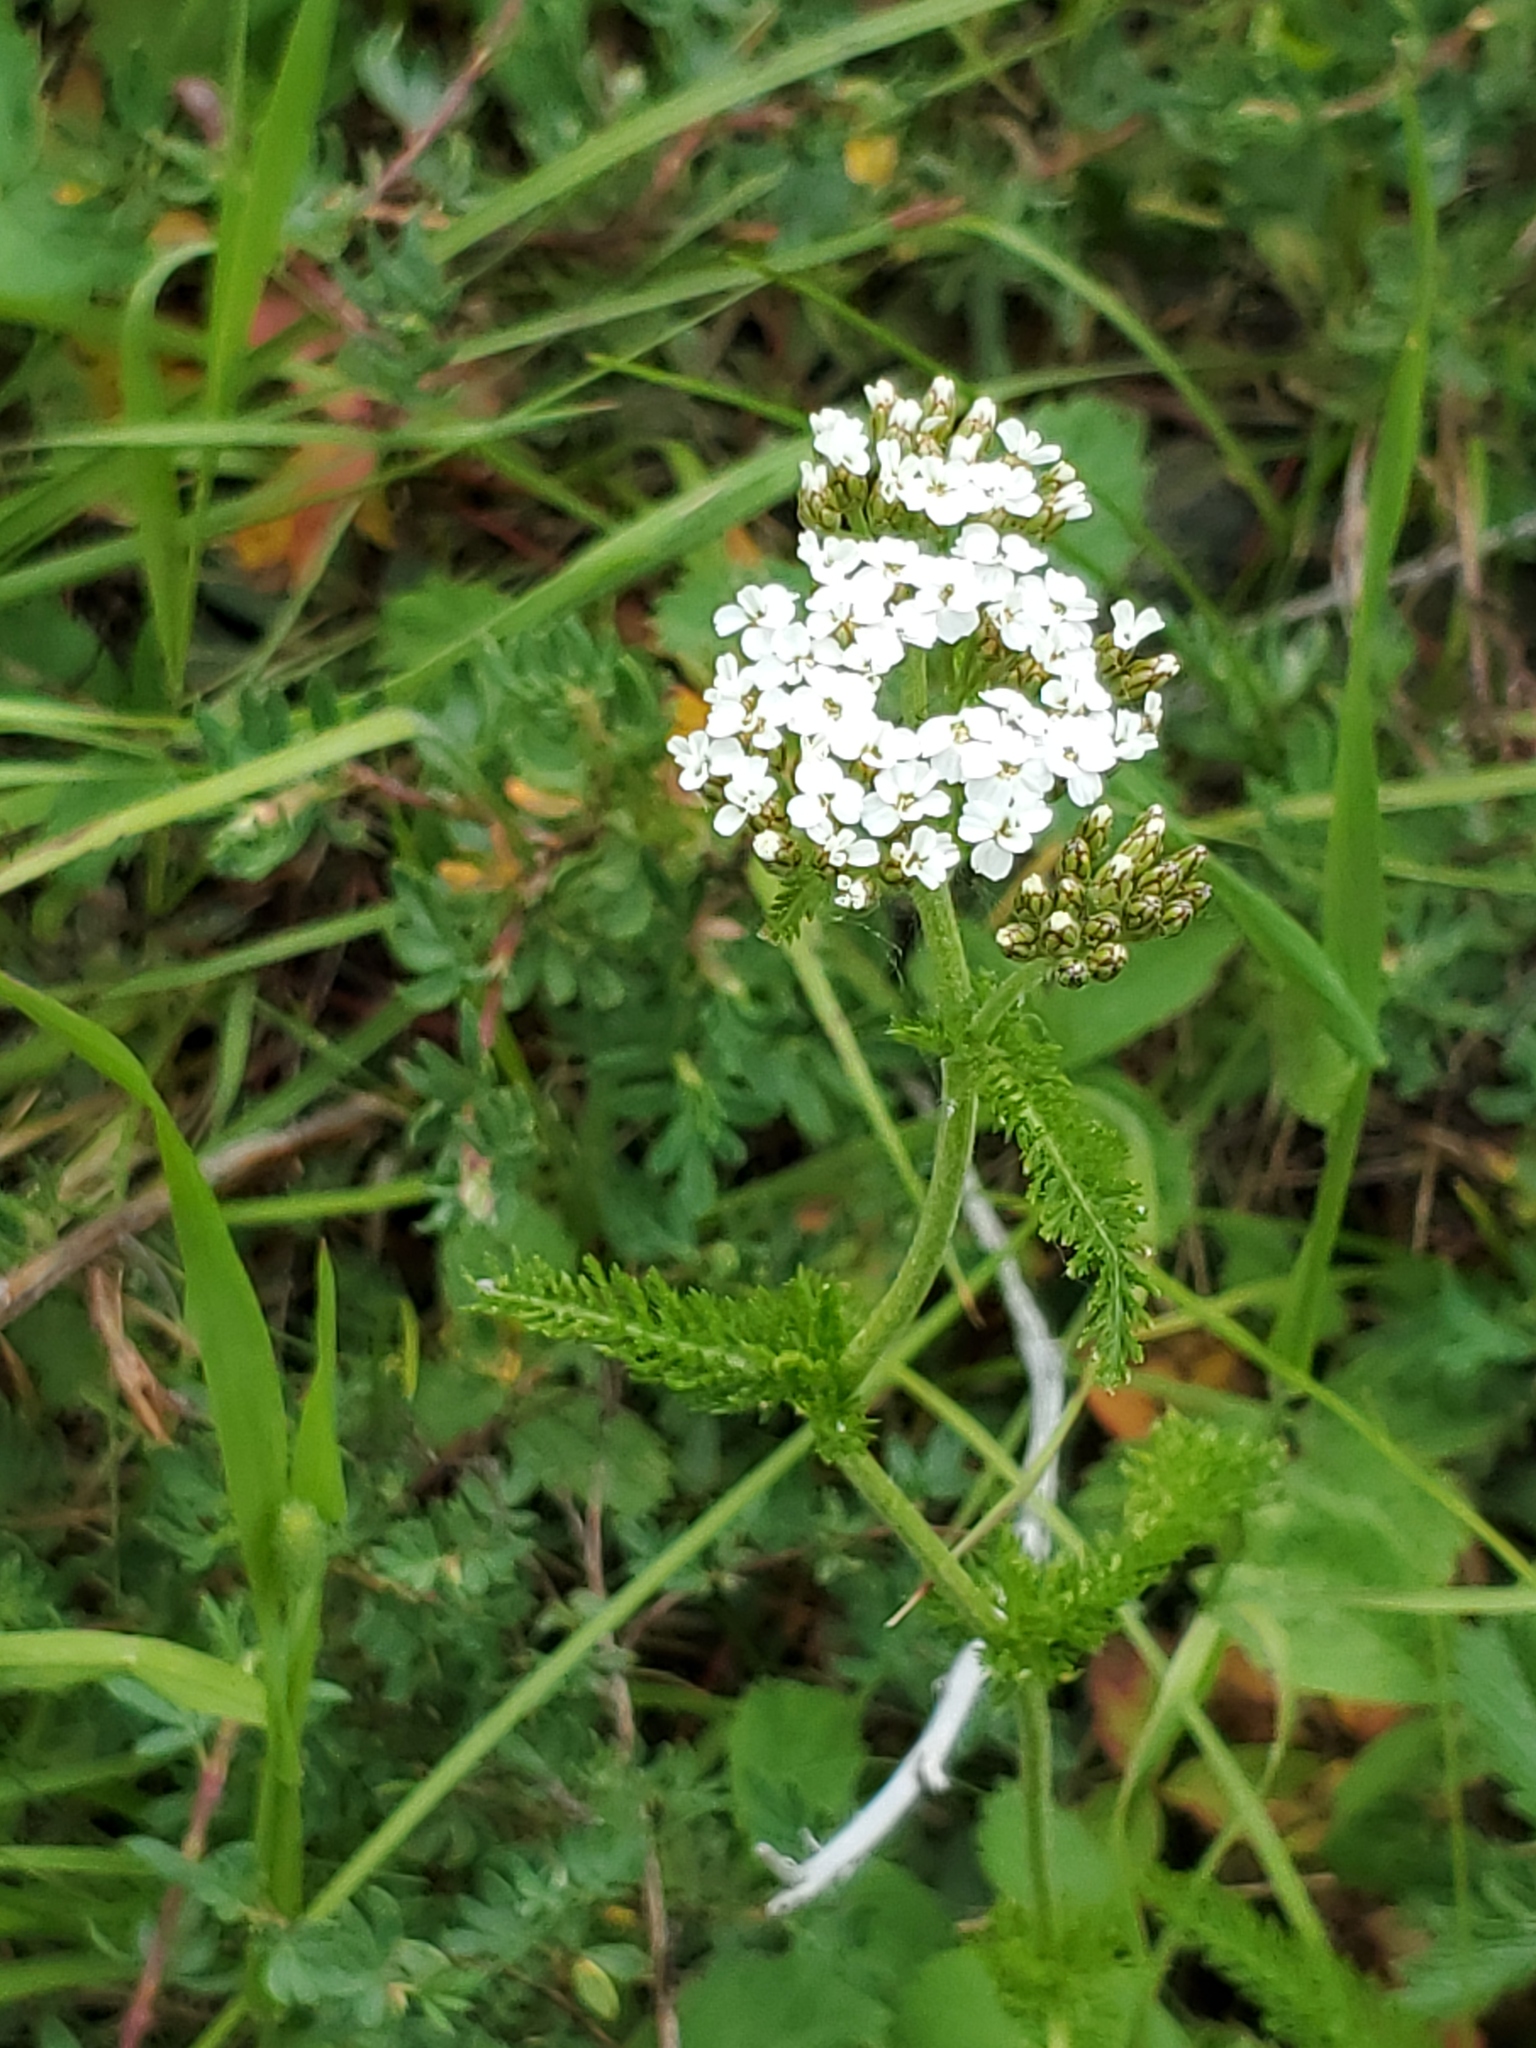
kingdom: Plantae
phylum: Tracheophyta
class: Magnoliopsida
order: Asterales
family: Asteraceae
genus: Achillea
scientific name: Achillea millefolium
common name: Yarrow
